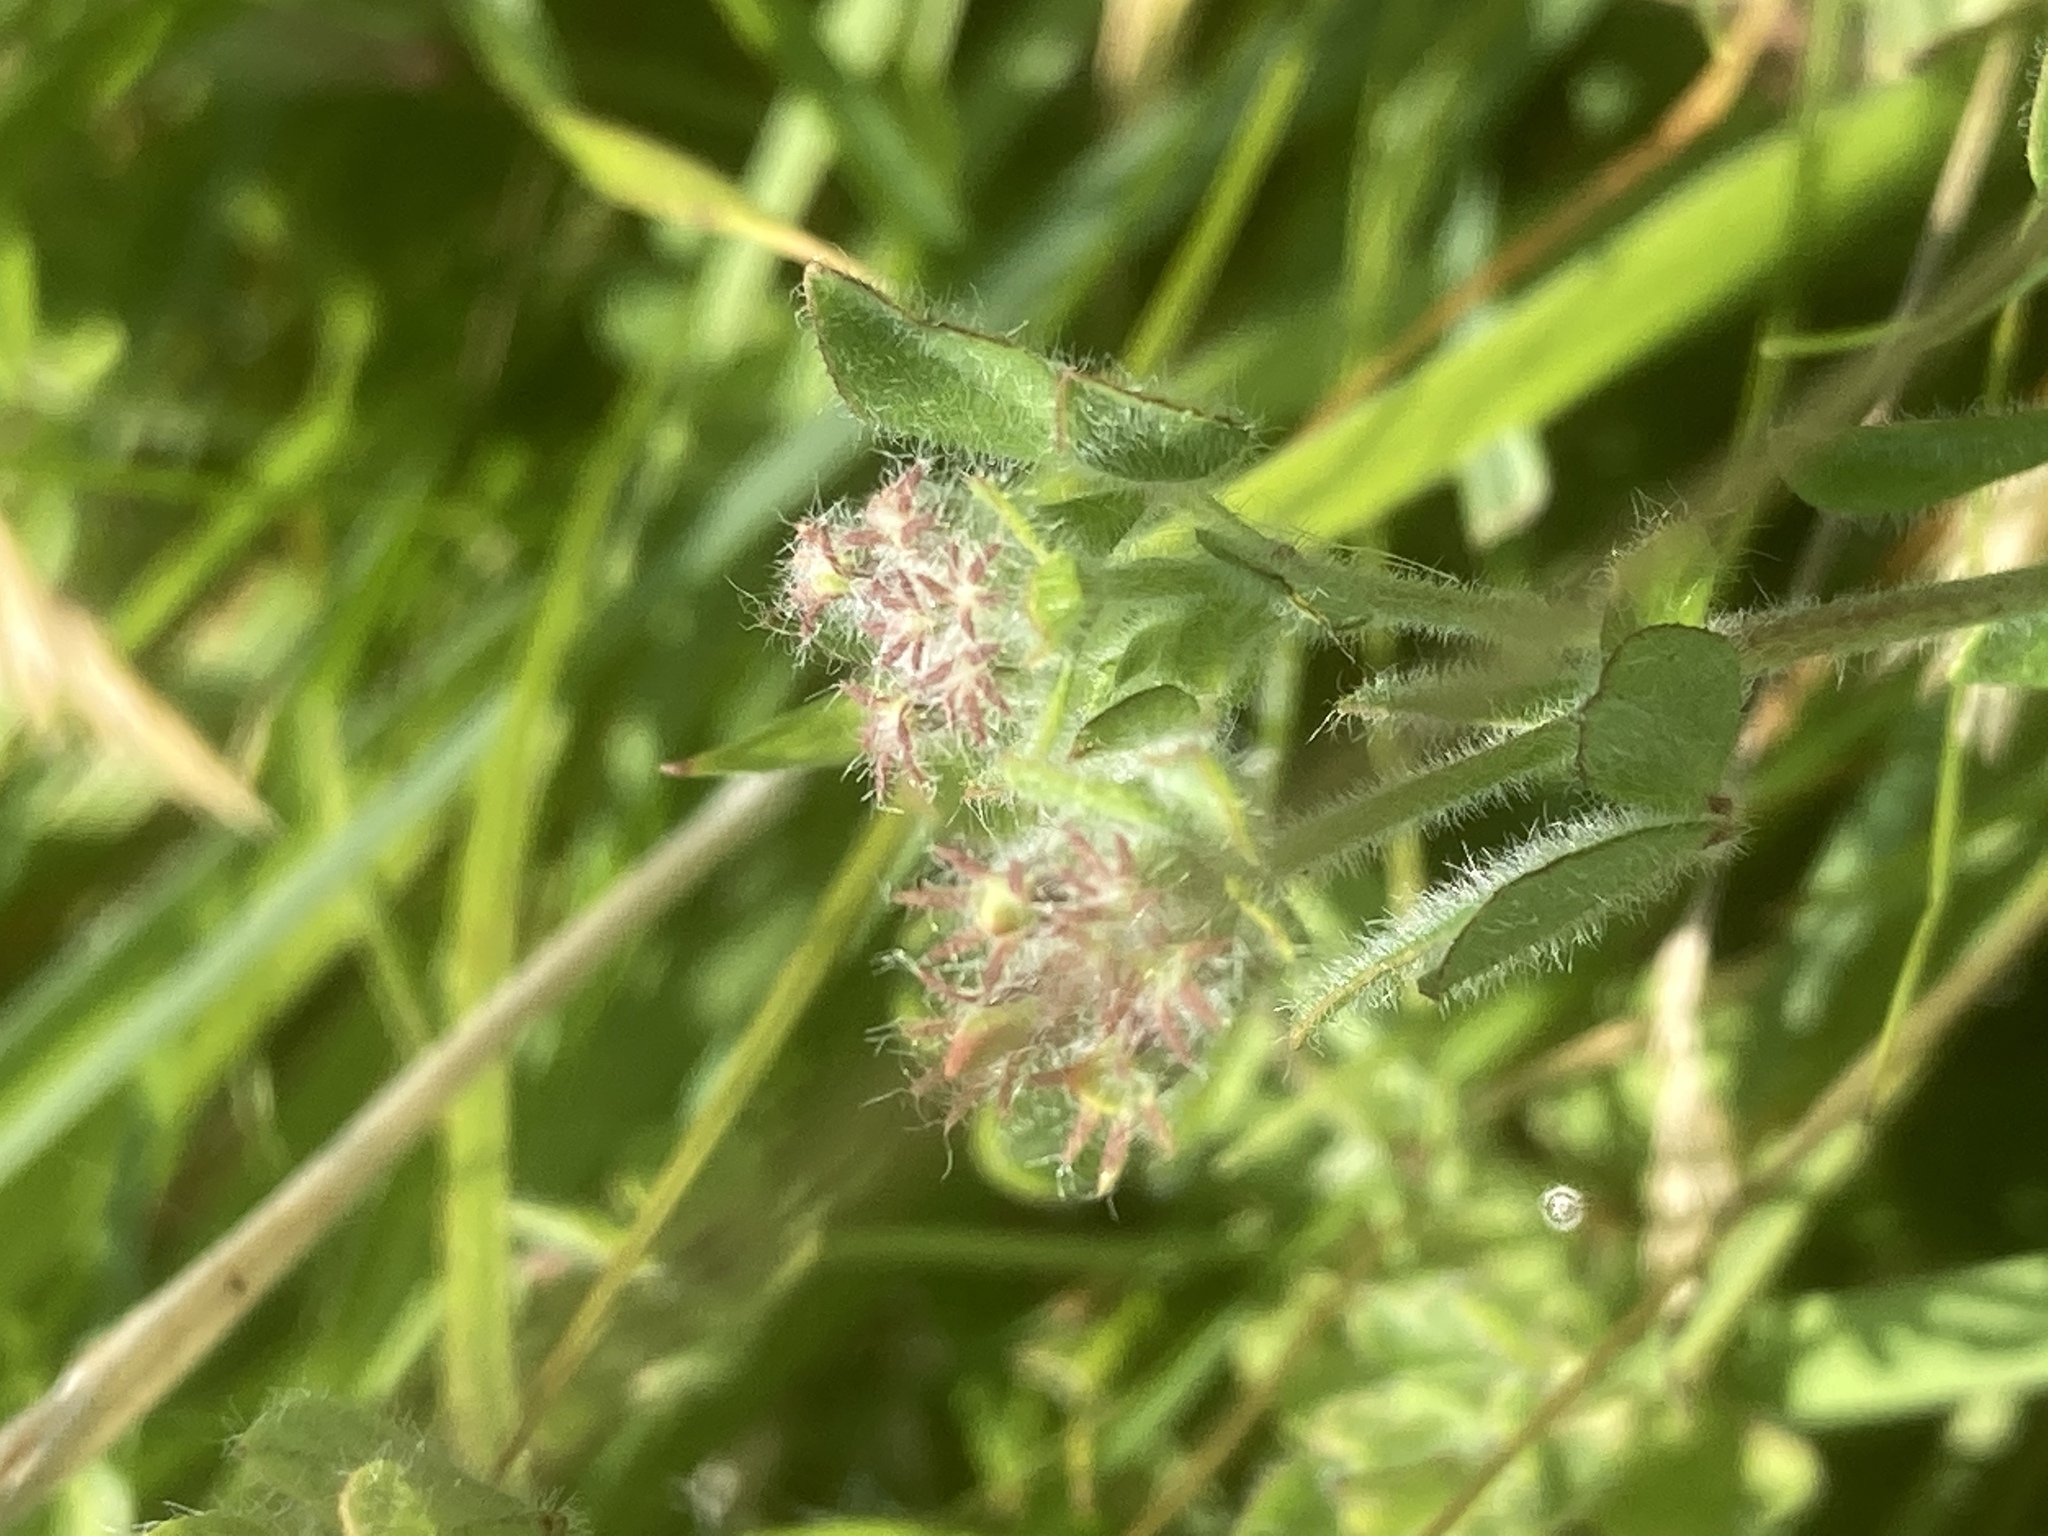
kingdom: Plantae
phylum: Tracheophyta
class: Magnoliopsida
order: Fabales
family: Fabaceae
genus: Lotus
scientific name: Lotus pedunculatus
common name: Greater birdsfoot-trefoil
